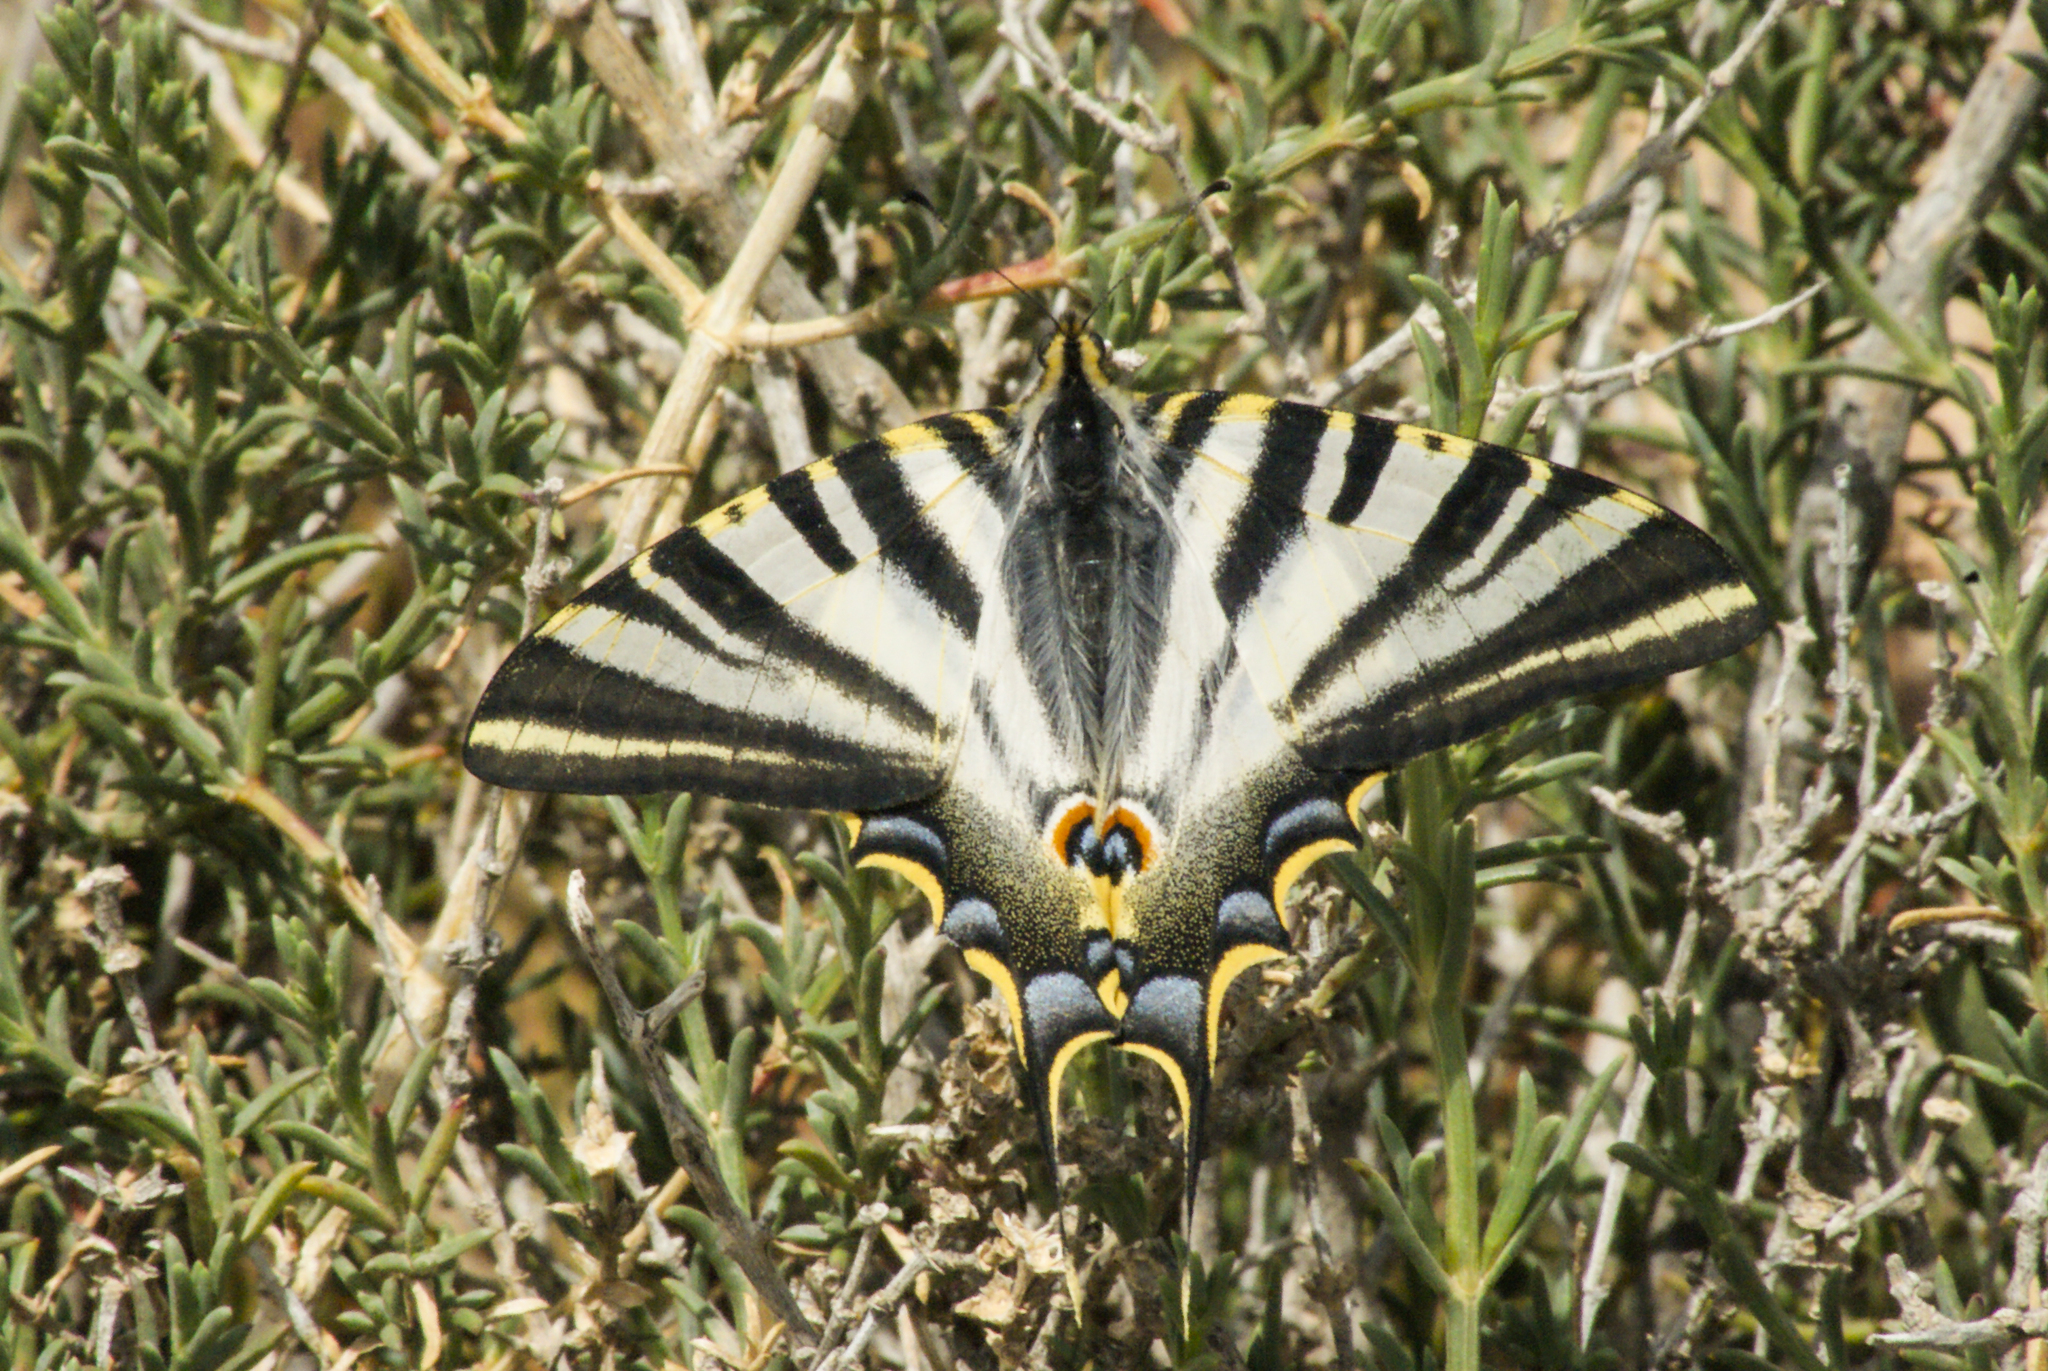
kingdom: Animalia
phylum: Arthropoda
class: Insecta
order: Lepidoptera
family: Papilionidae
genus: Iphiclides
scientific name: Iphiclides feisthamelii
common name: Iberian scarce swallowtail
